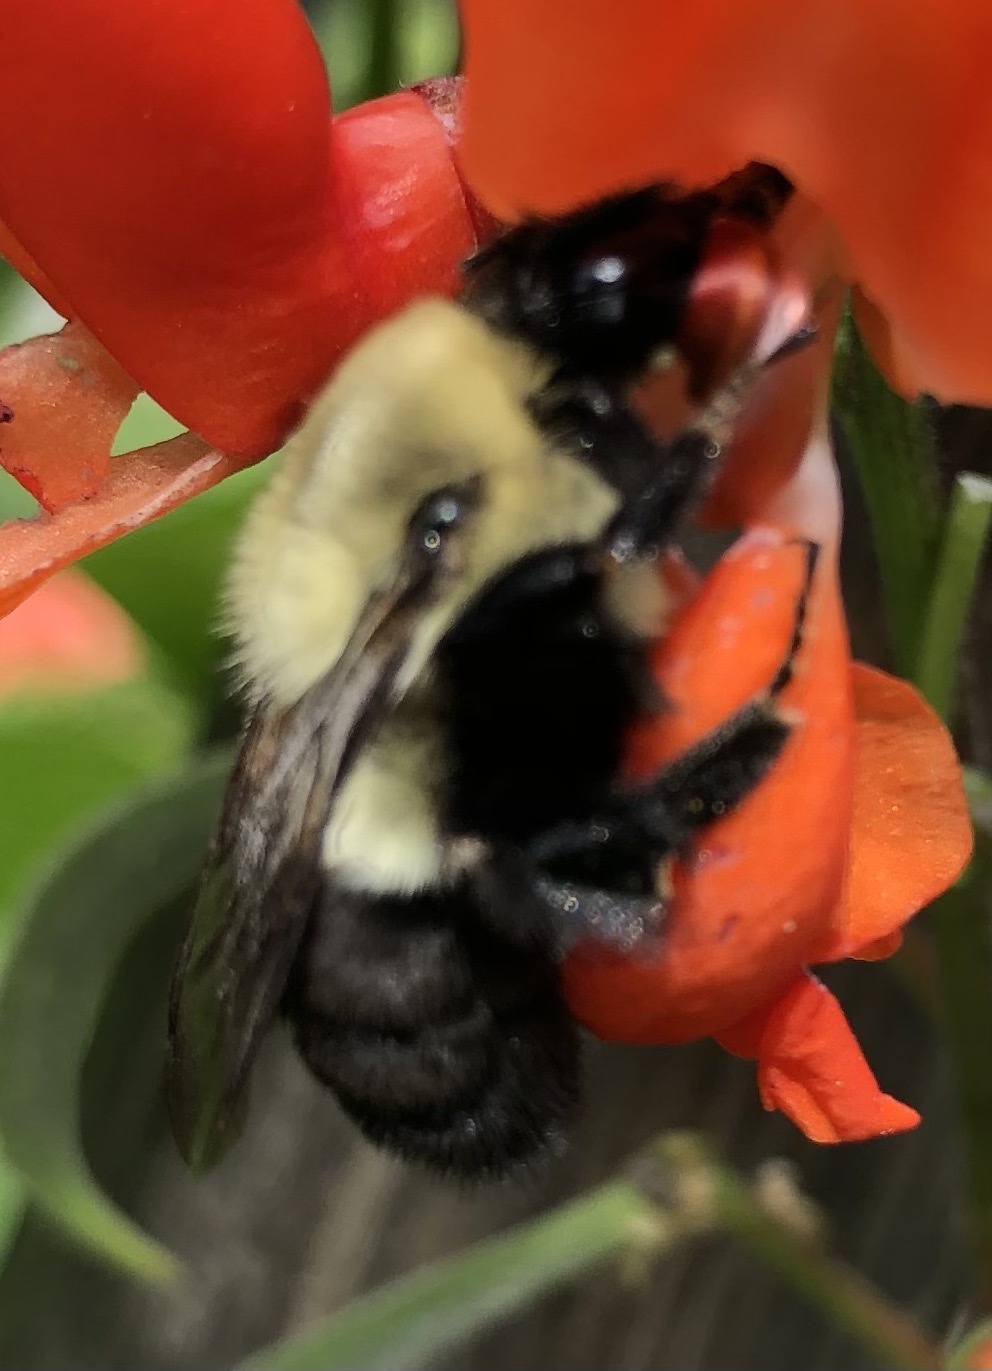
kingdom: Animalia
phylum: Arthropoda
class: Insecta
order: Hymenoptera
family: Apidae
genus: Bombus
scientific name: Bombus impatiens
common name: Common eastern bumble bee
